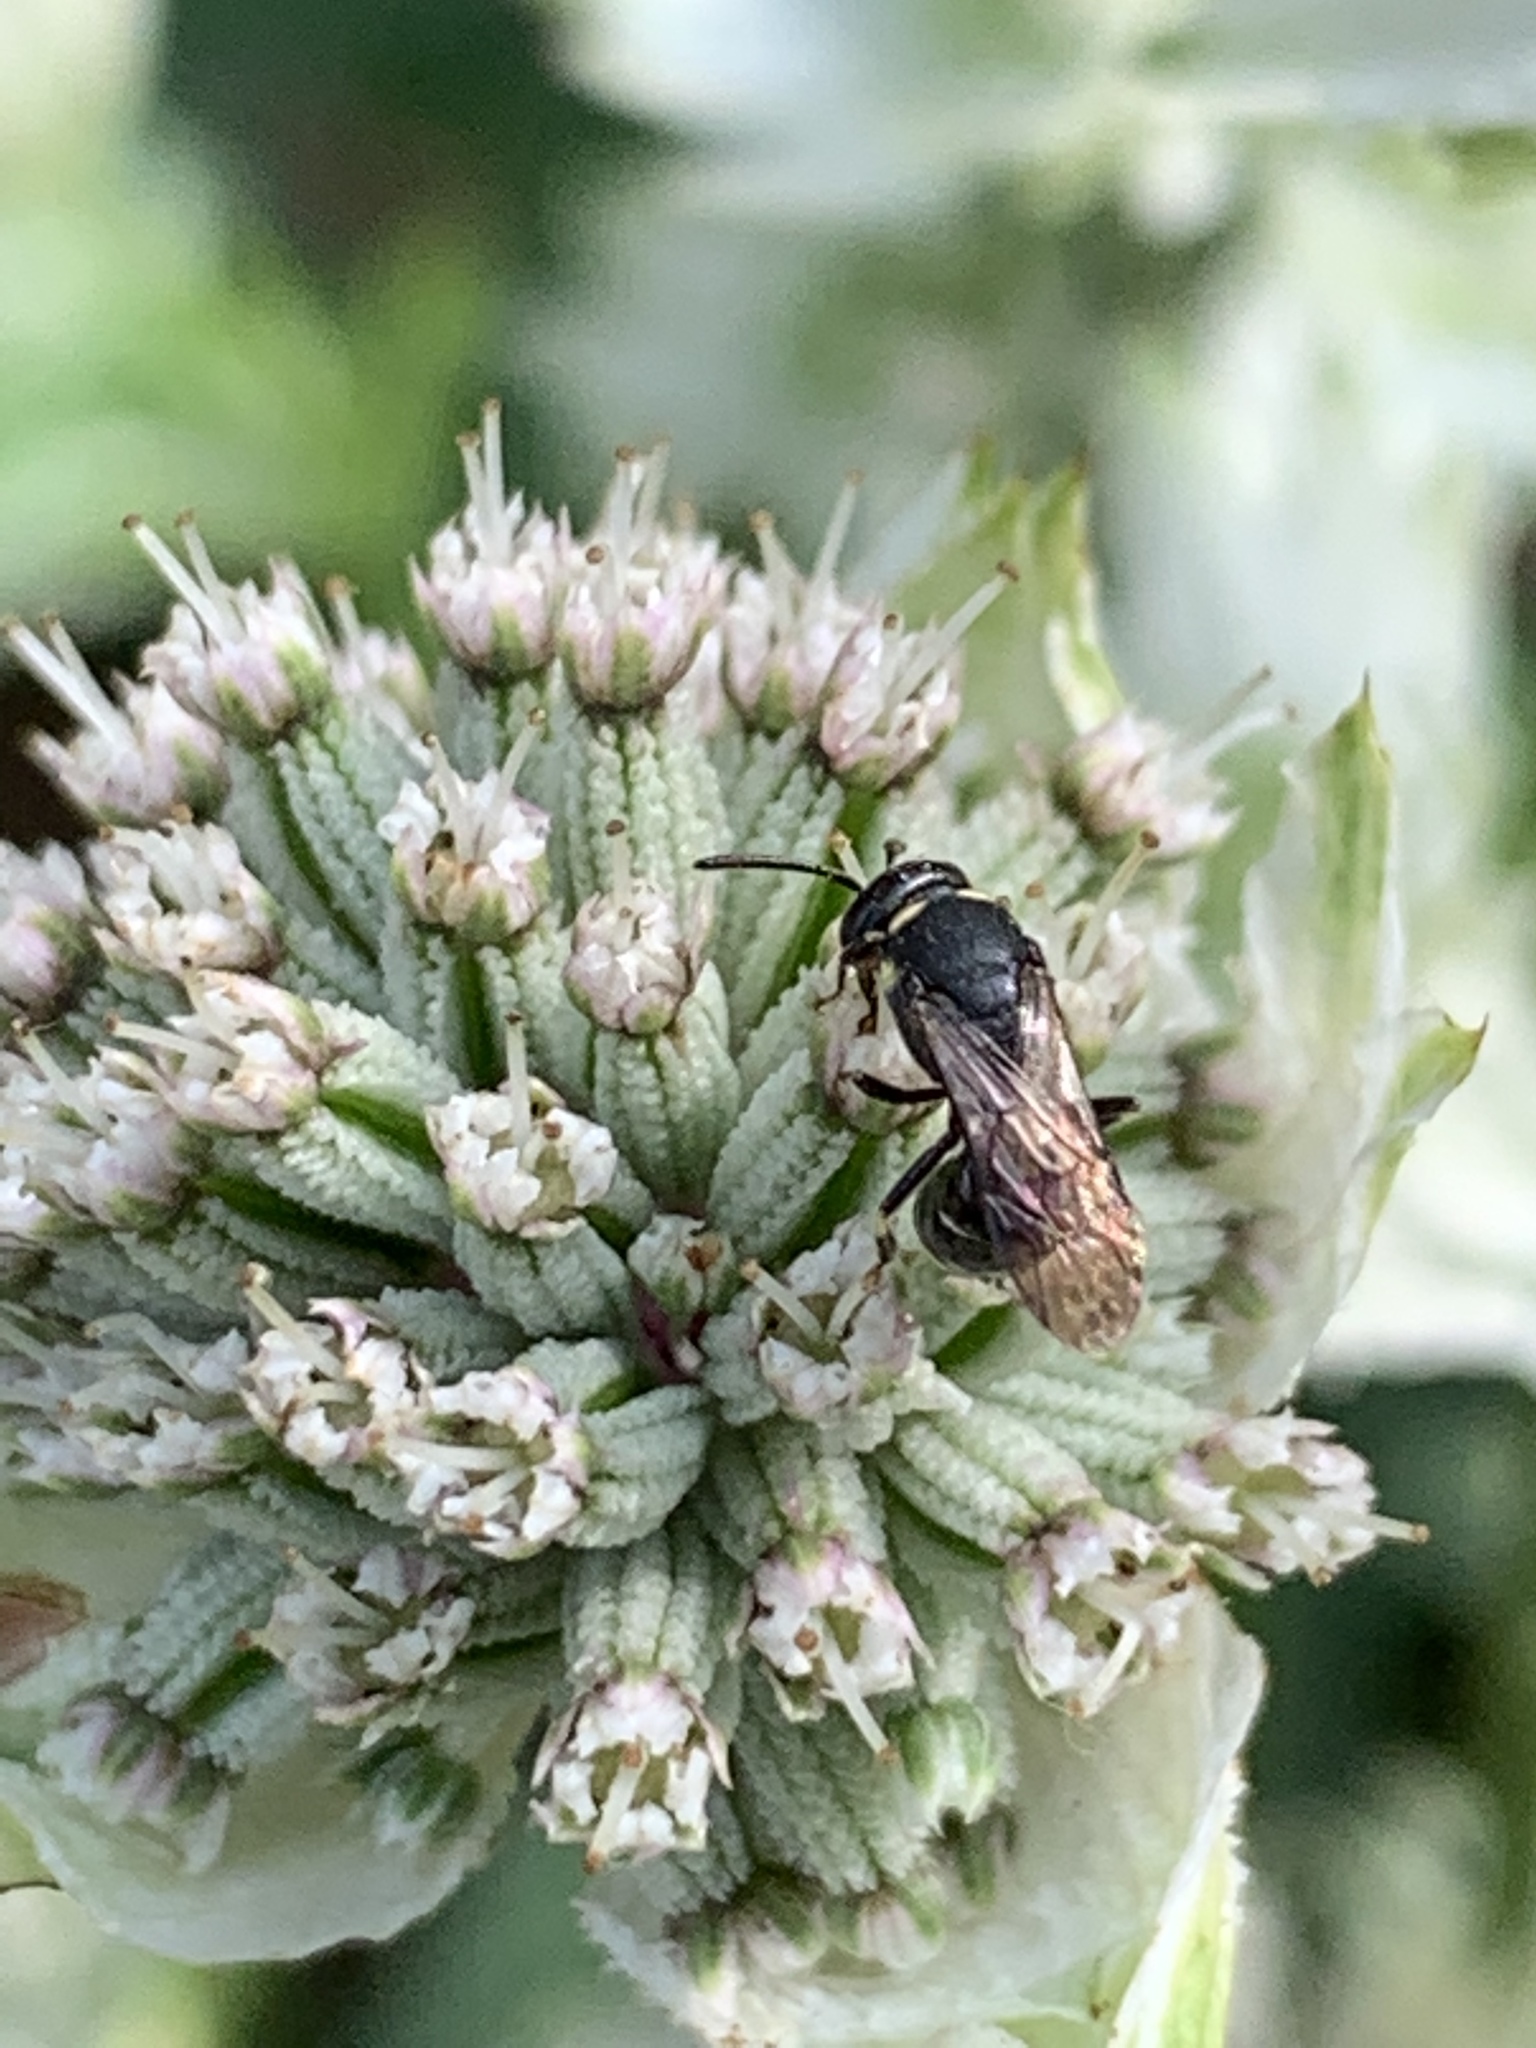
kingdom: Animalia
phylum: Arthropoda
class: Insecta
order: Hymenoptera
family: Colletidae
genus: Hylaeus
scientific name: Hylaeus
